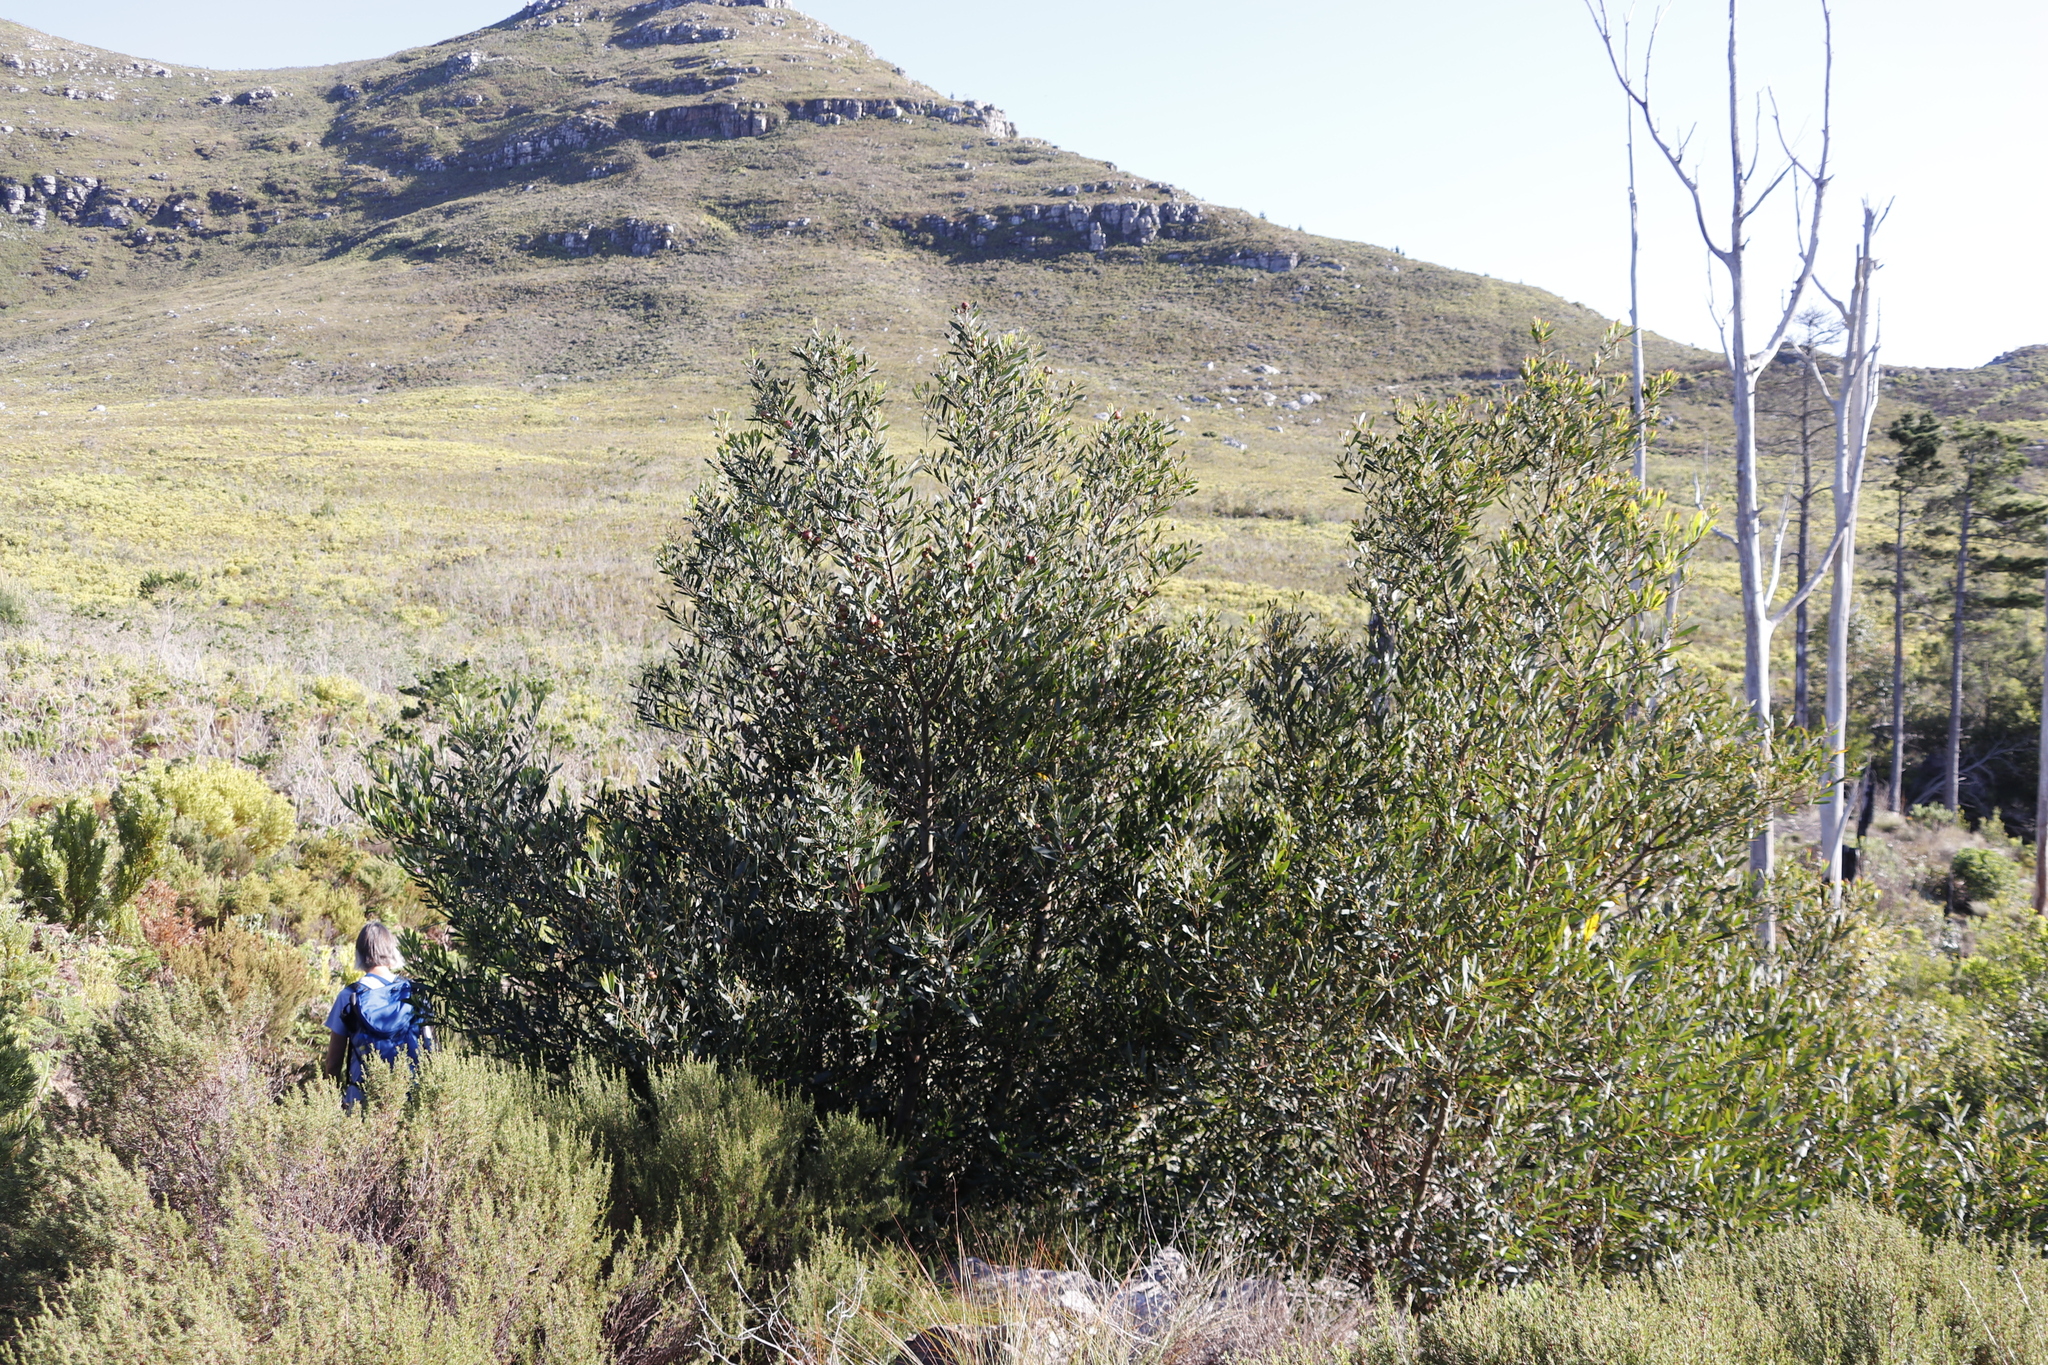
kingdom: Plantae
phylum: Tracheophyta
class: Magnoliopsida
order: Fabales
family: Fabaceae
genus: Acacia
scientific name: Acacia melanoxylon
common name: Blackwood
